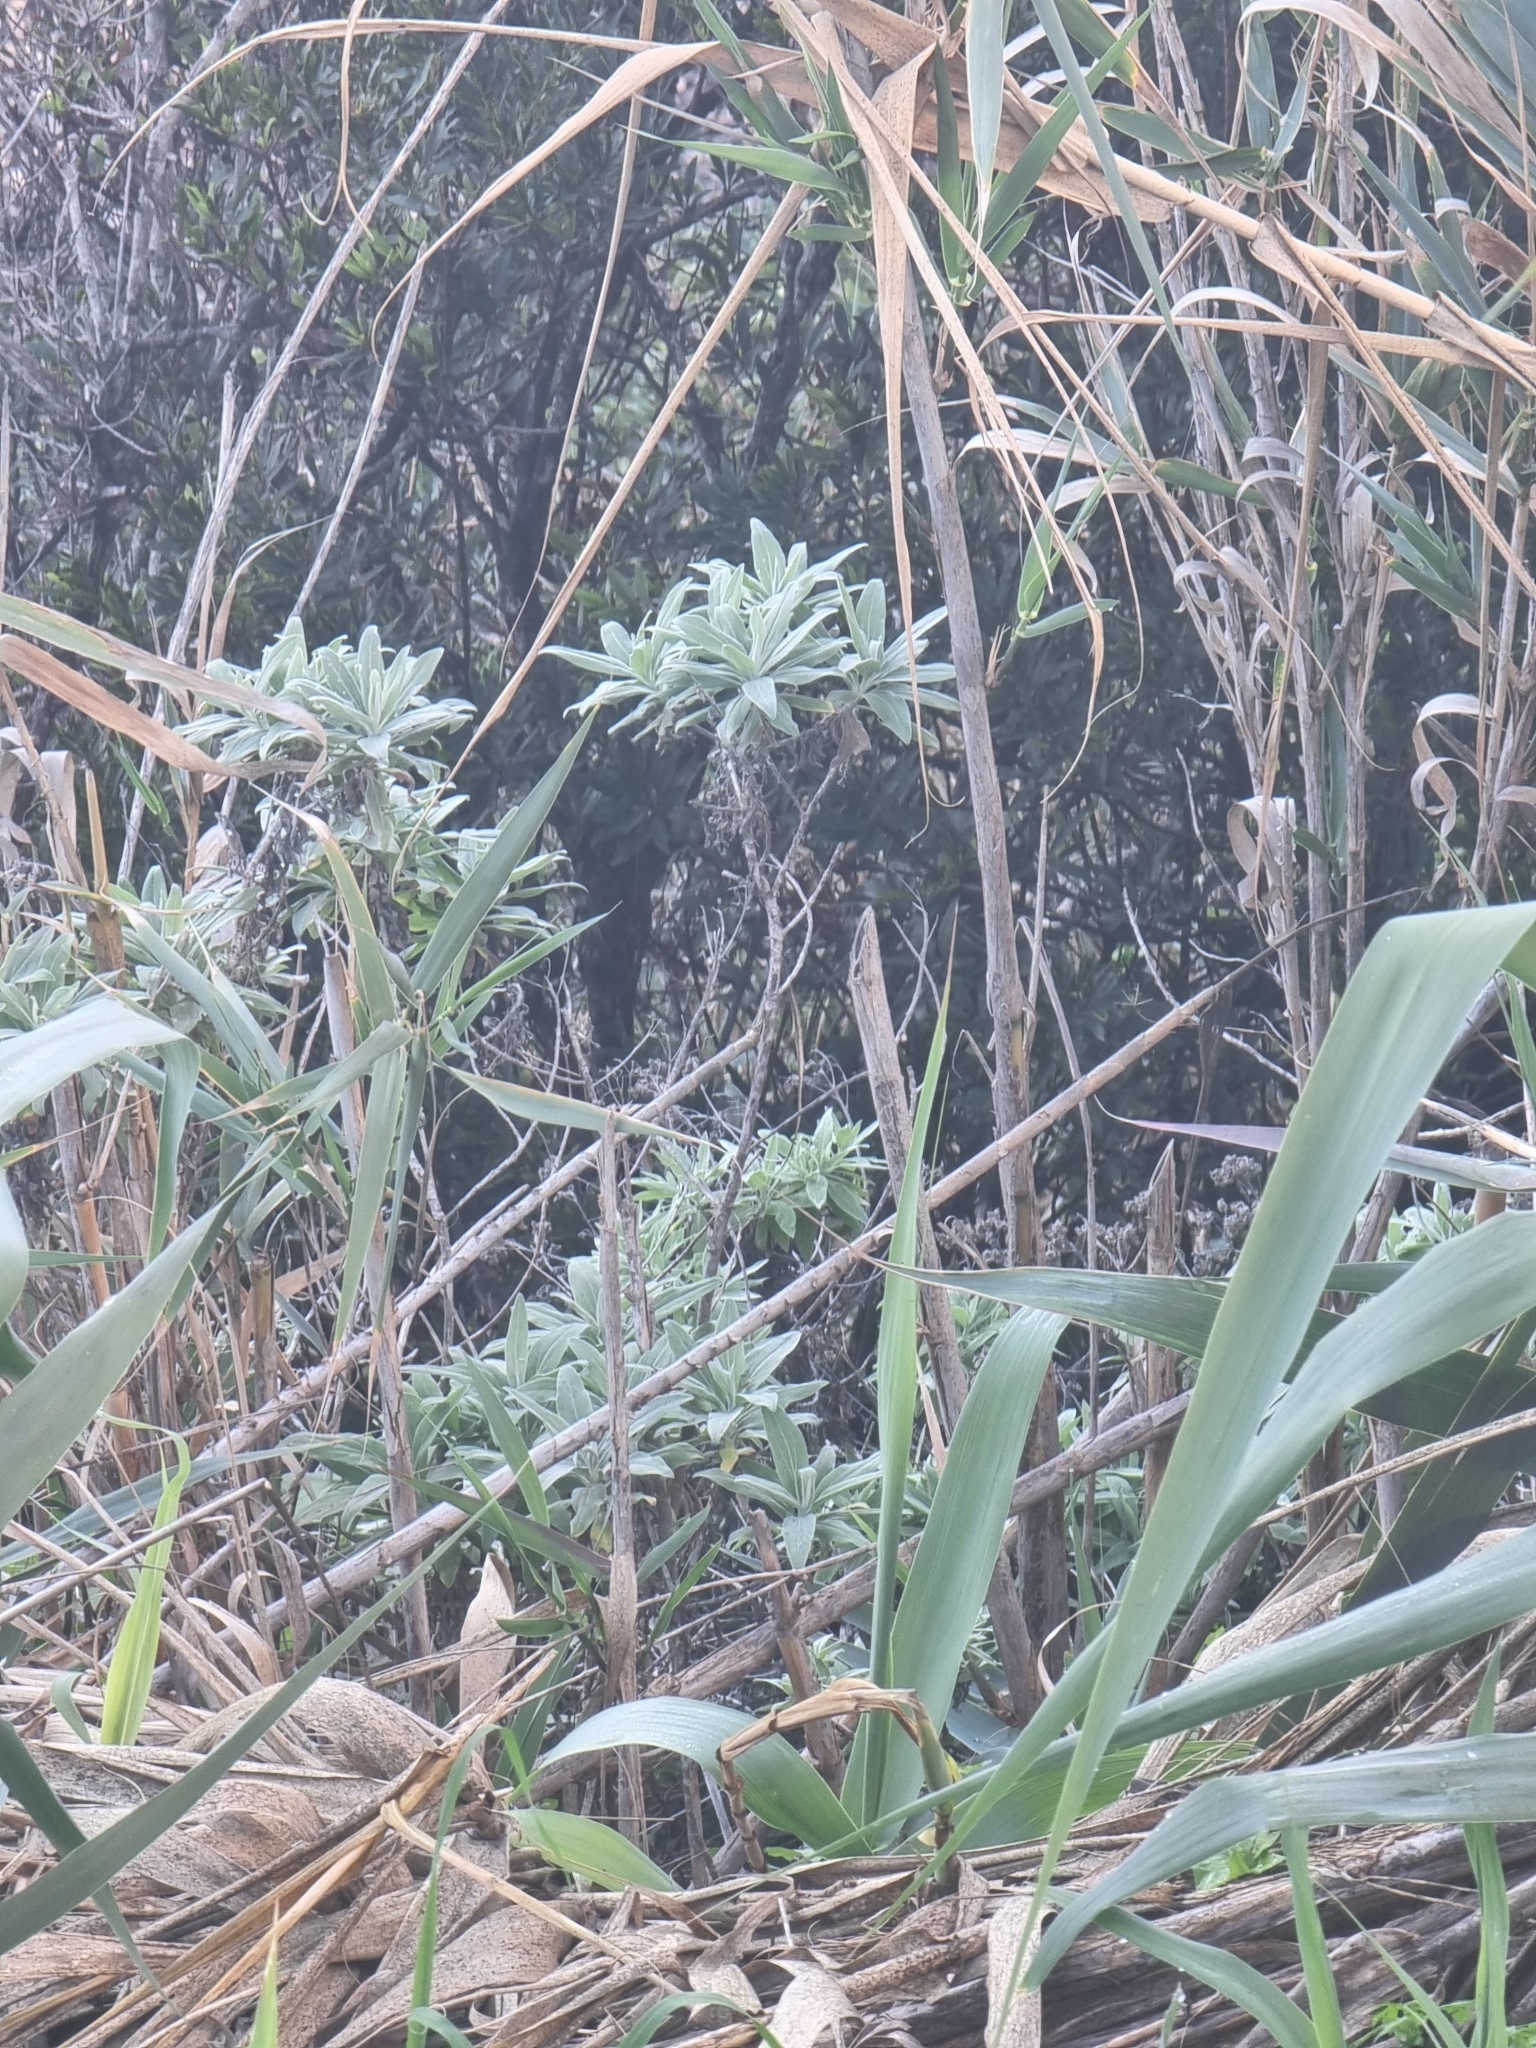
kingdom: Plantae
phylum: Tracheophyta
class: Magnoliopsida
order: Asterales
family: Asteraceae
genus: Helichrysum
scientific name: Helichrysum melaleucum
